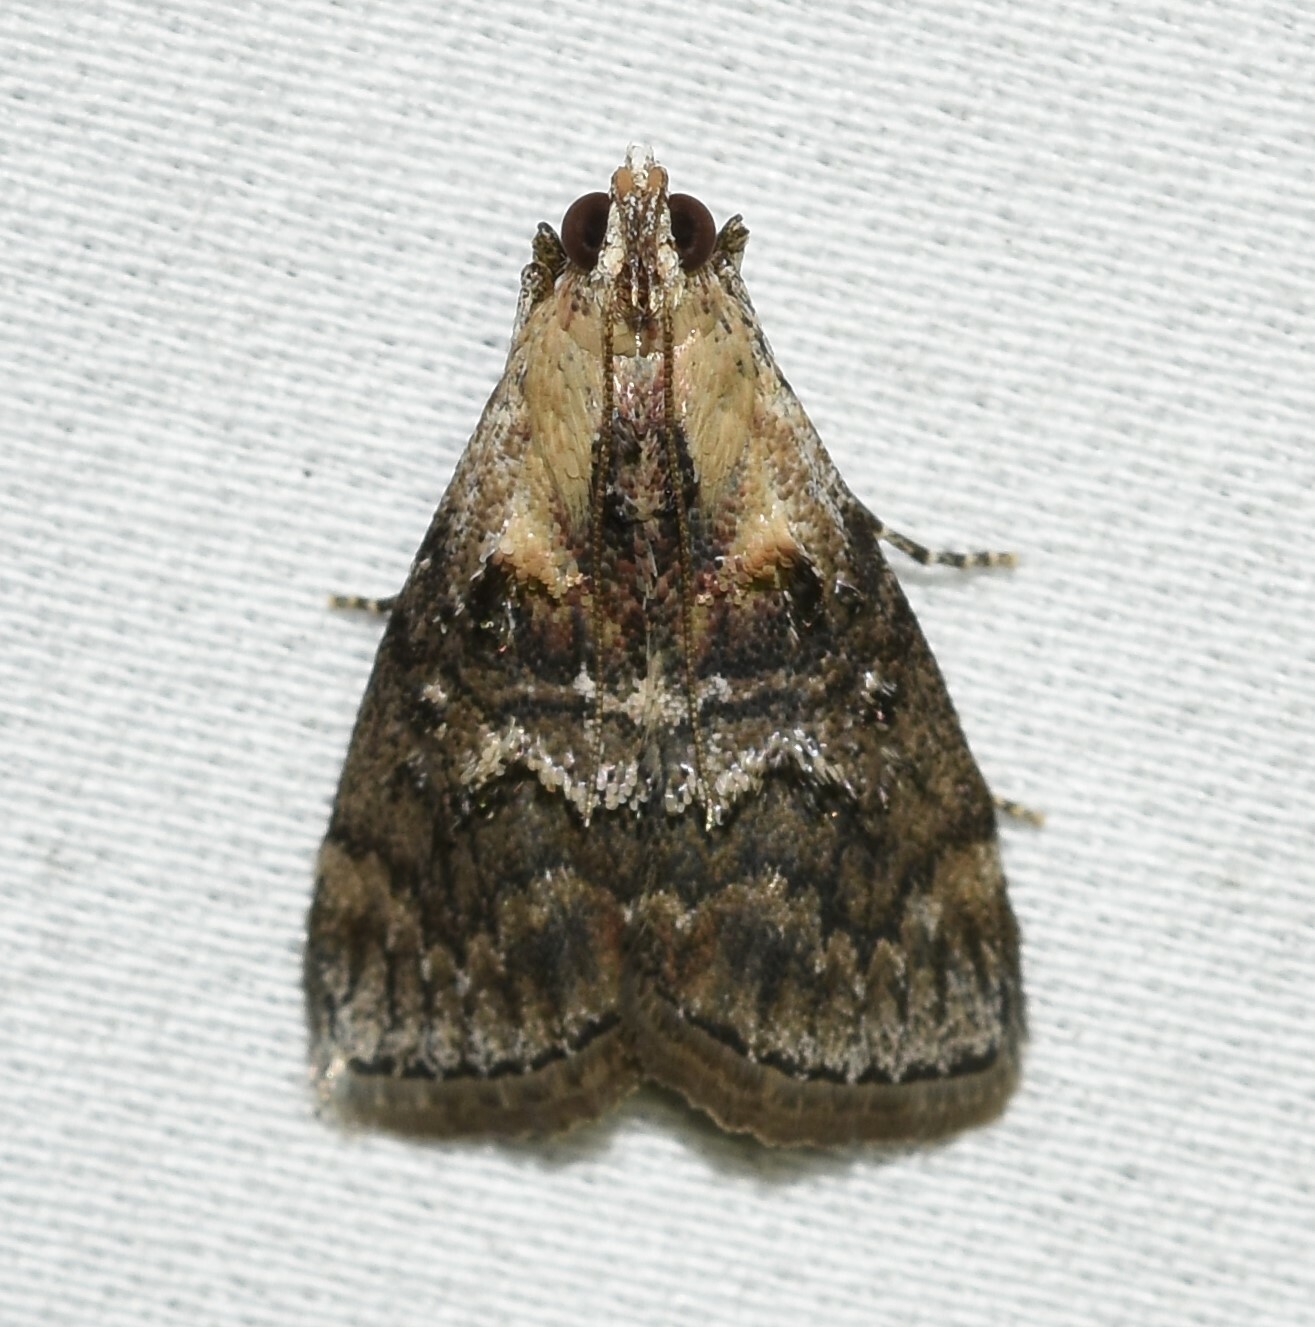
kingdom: Animalia
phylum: Arthropoda
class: Insecta
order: Lepidoptera
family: Pyralidae
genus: Pococera
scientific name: Pococera expandens
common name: Striped oak webworm moth
